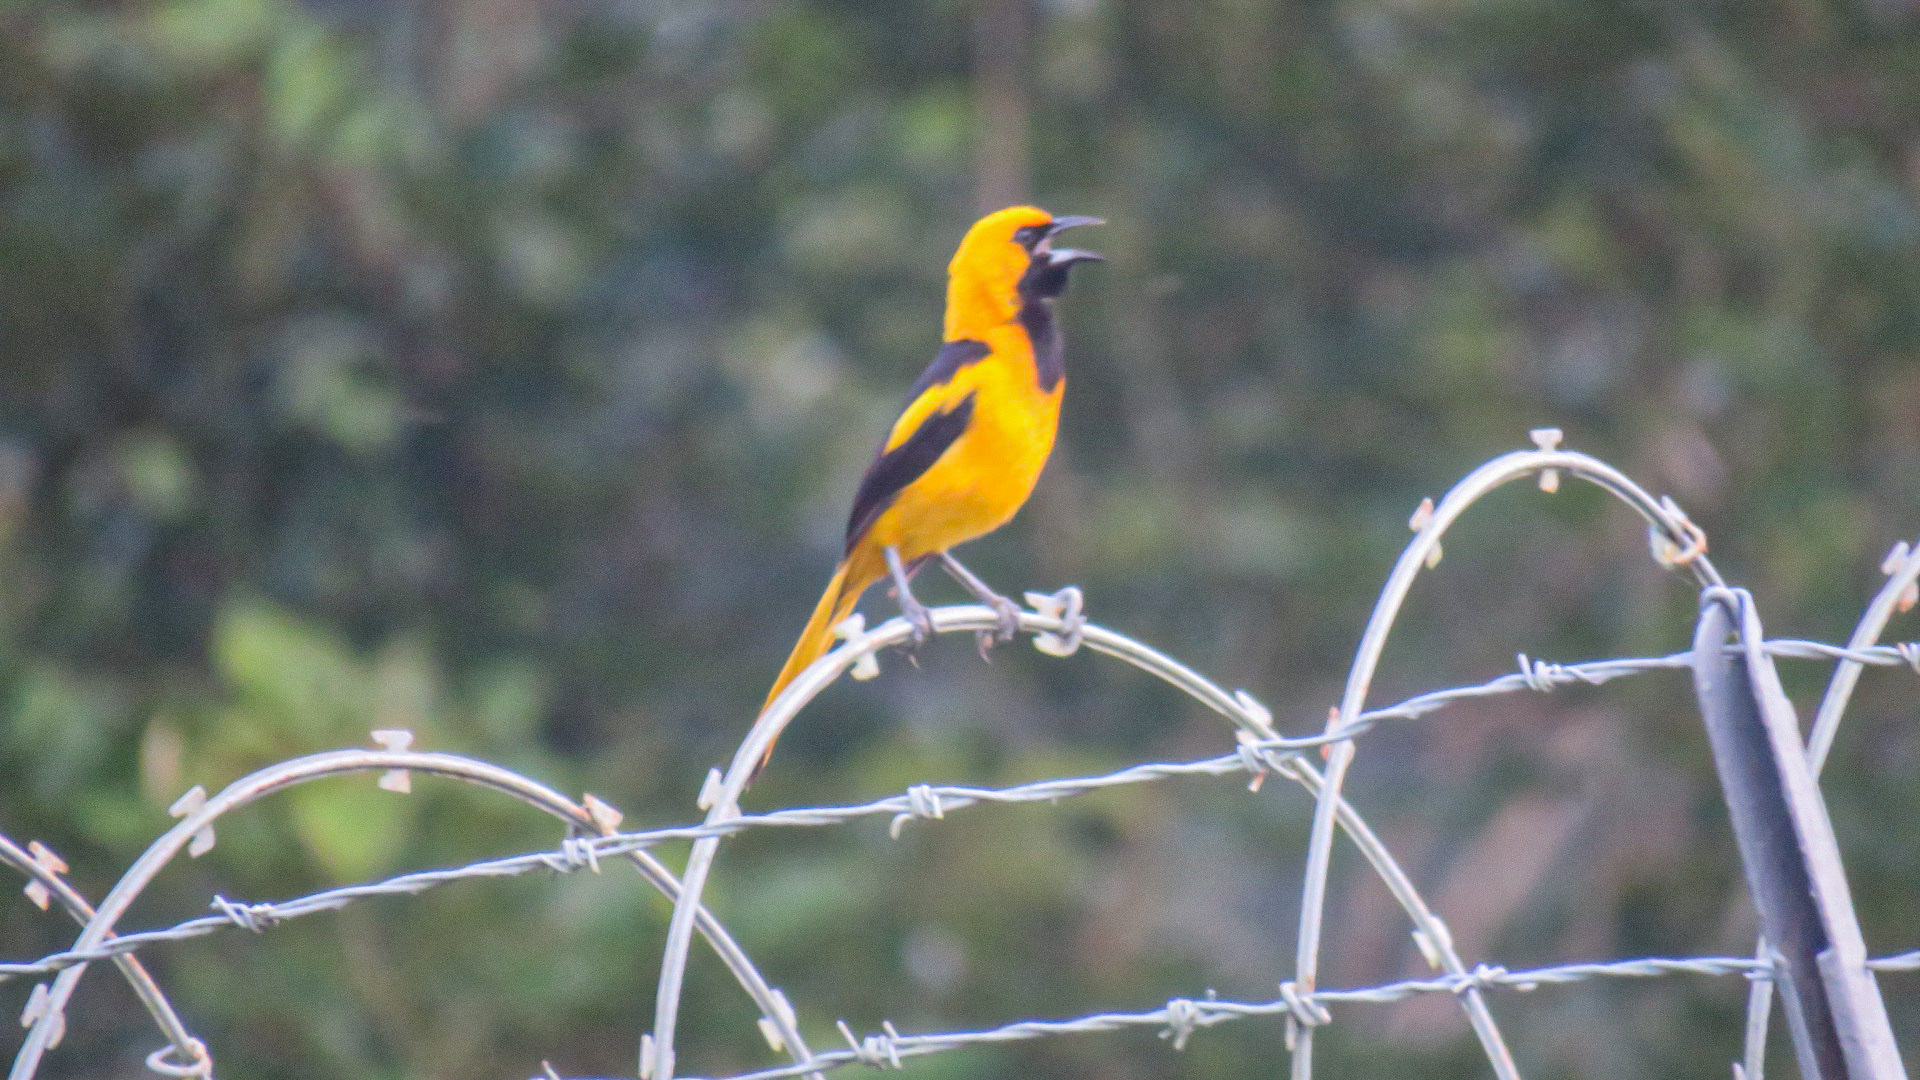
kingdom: Animalia
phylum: Chordata
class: Aves
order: Passeriformes
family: Icteridae
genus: Icterus
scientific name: Icterus mesomelas
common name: Yellow-tailed oriole
